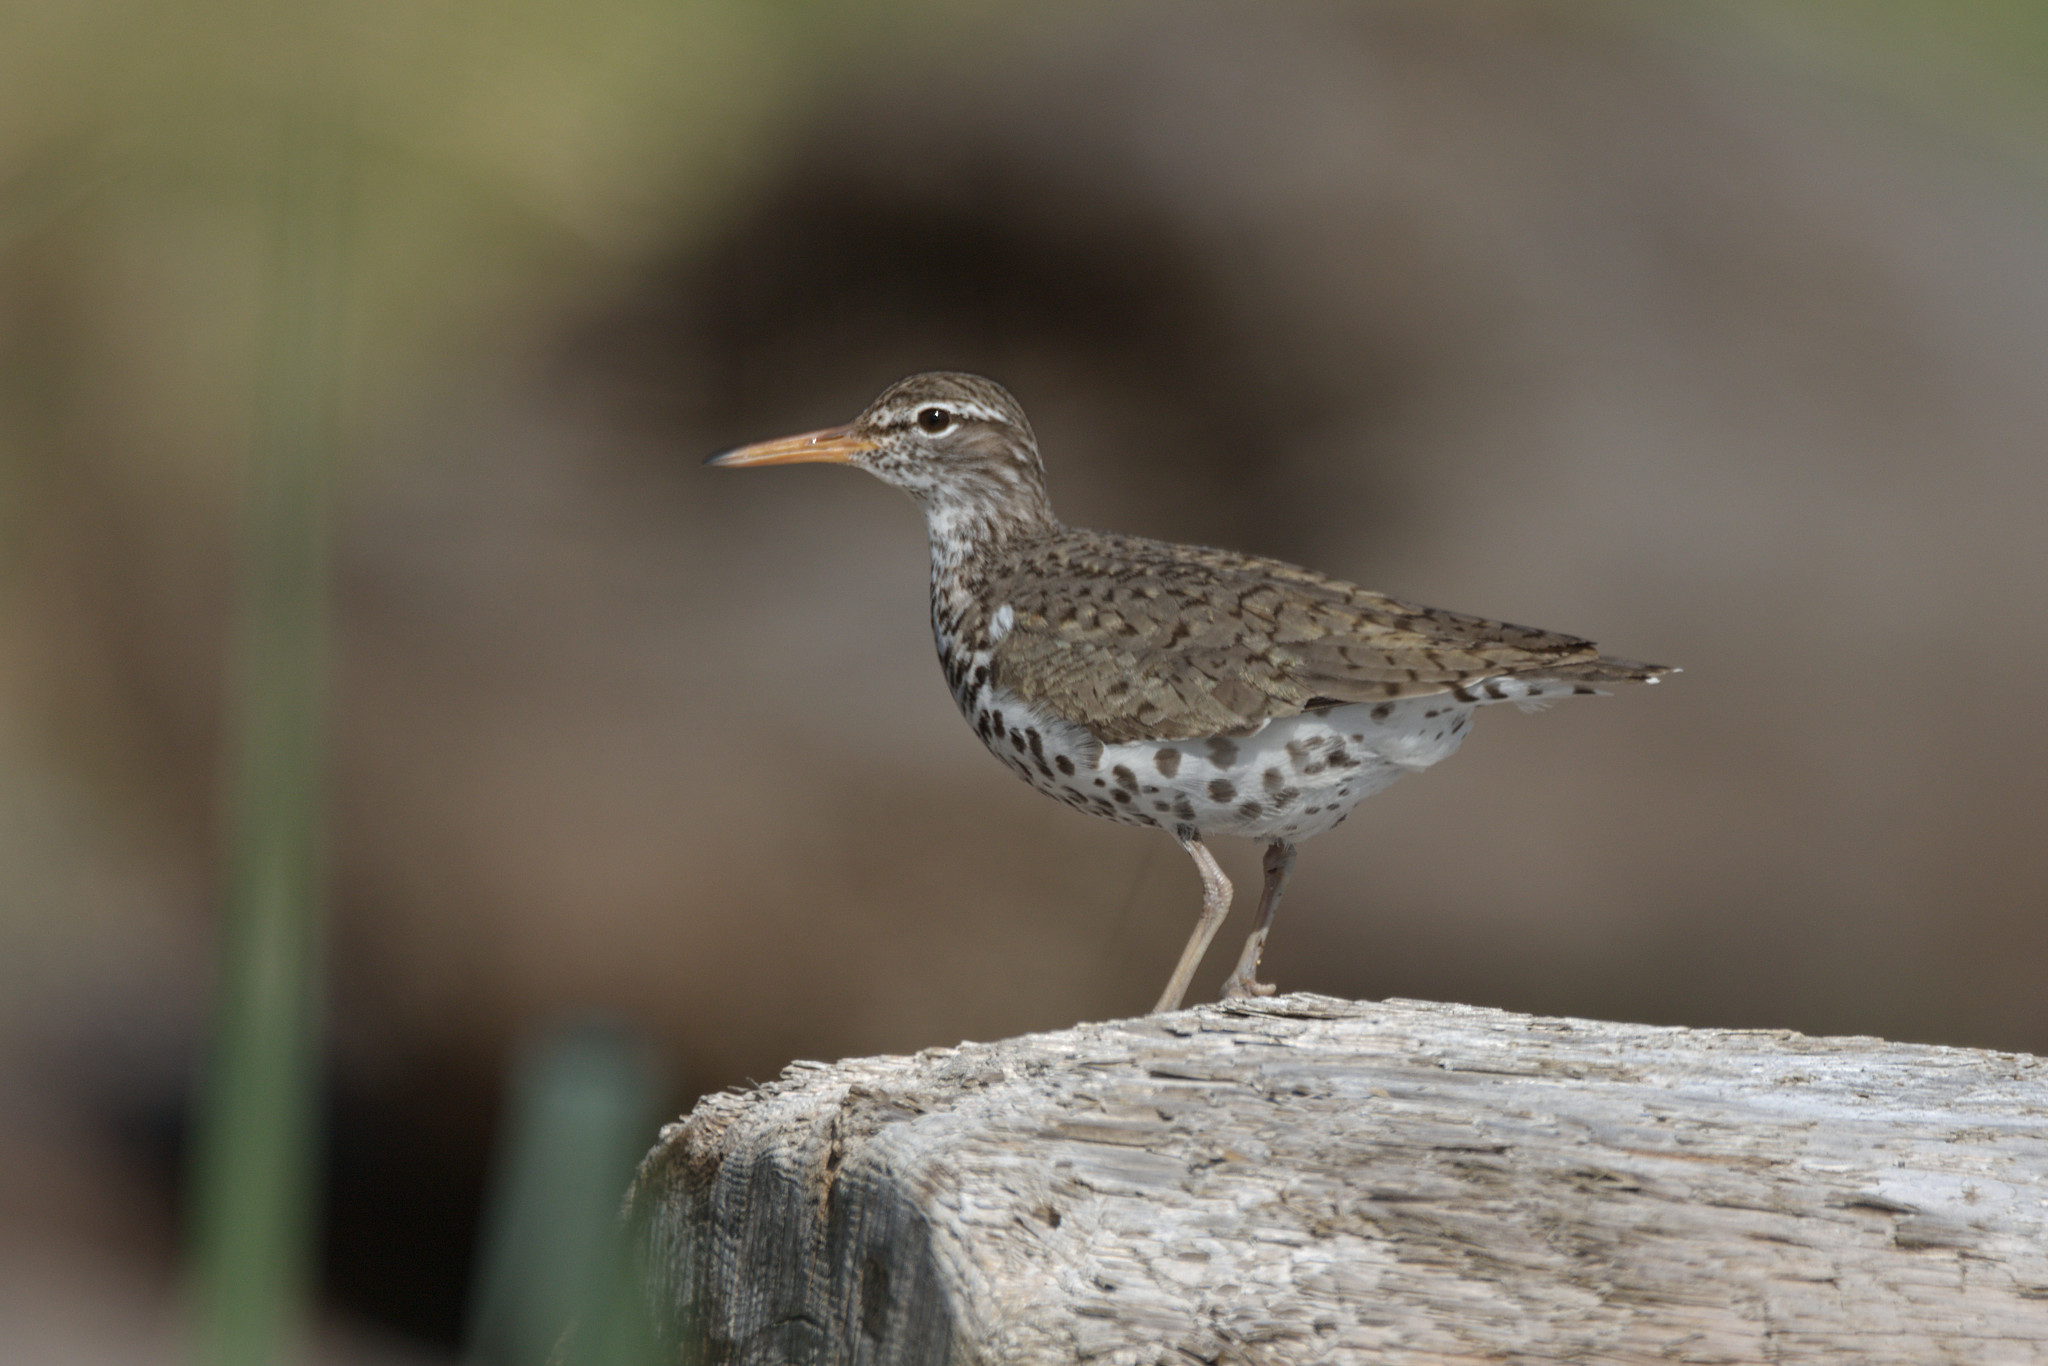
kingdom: Animalia
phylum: Chordata
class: Aves
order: Charadriiformes
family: Scolopacidae
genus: Actitis
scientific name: Actitis macularius
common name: Spotted sandpiper
